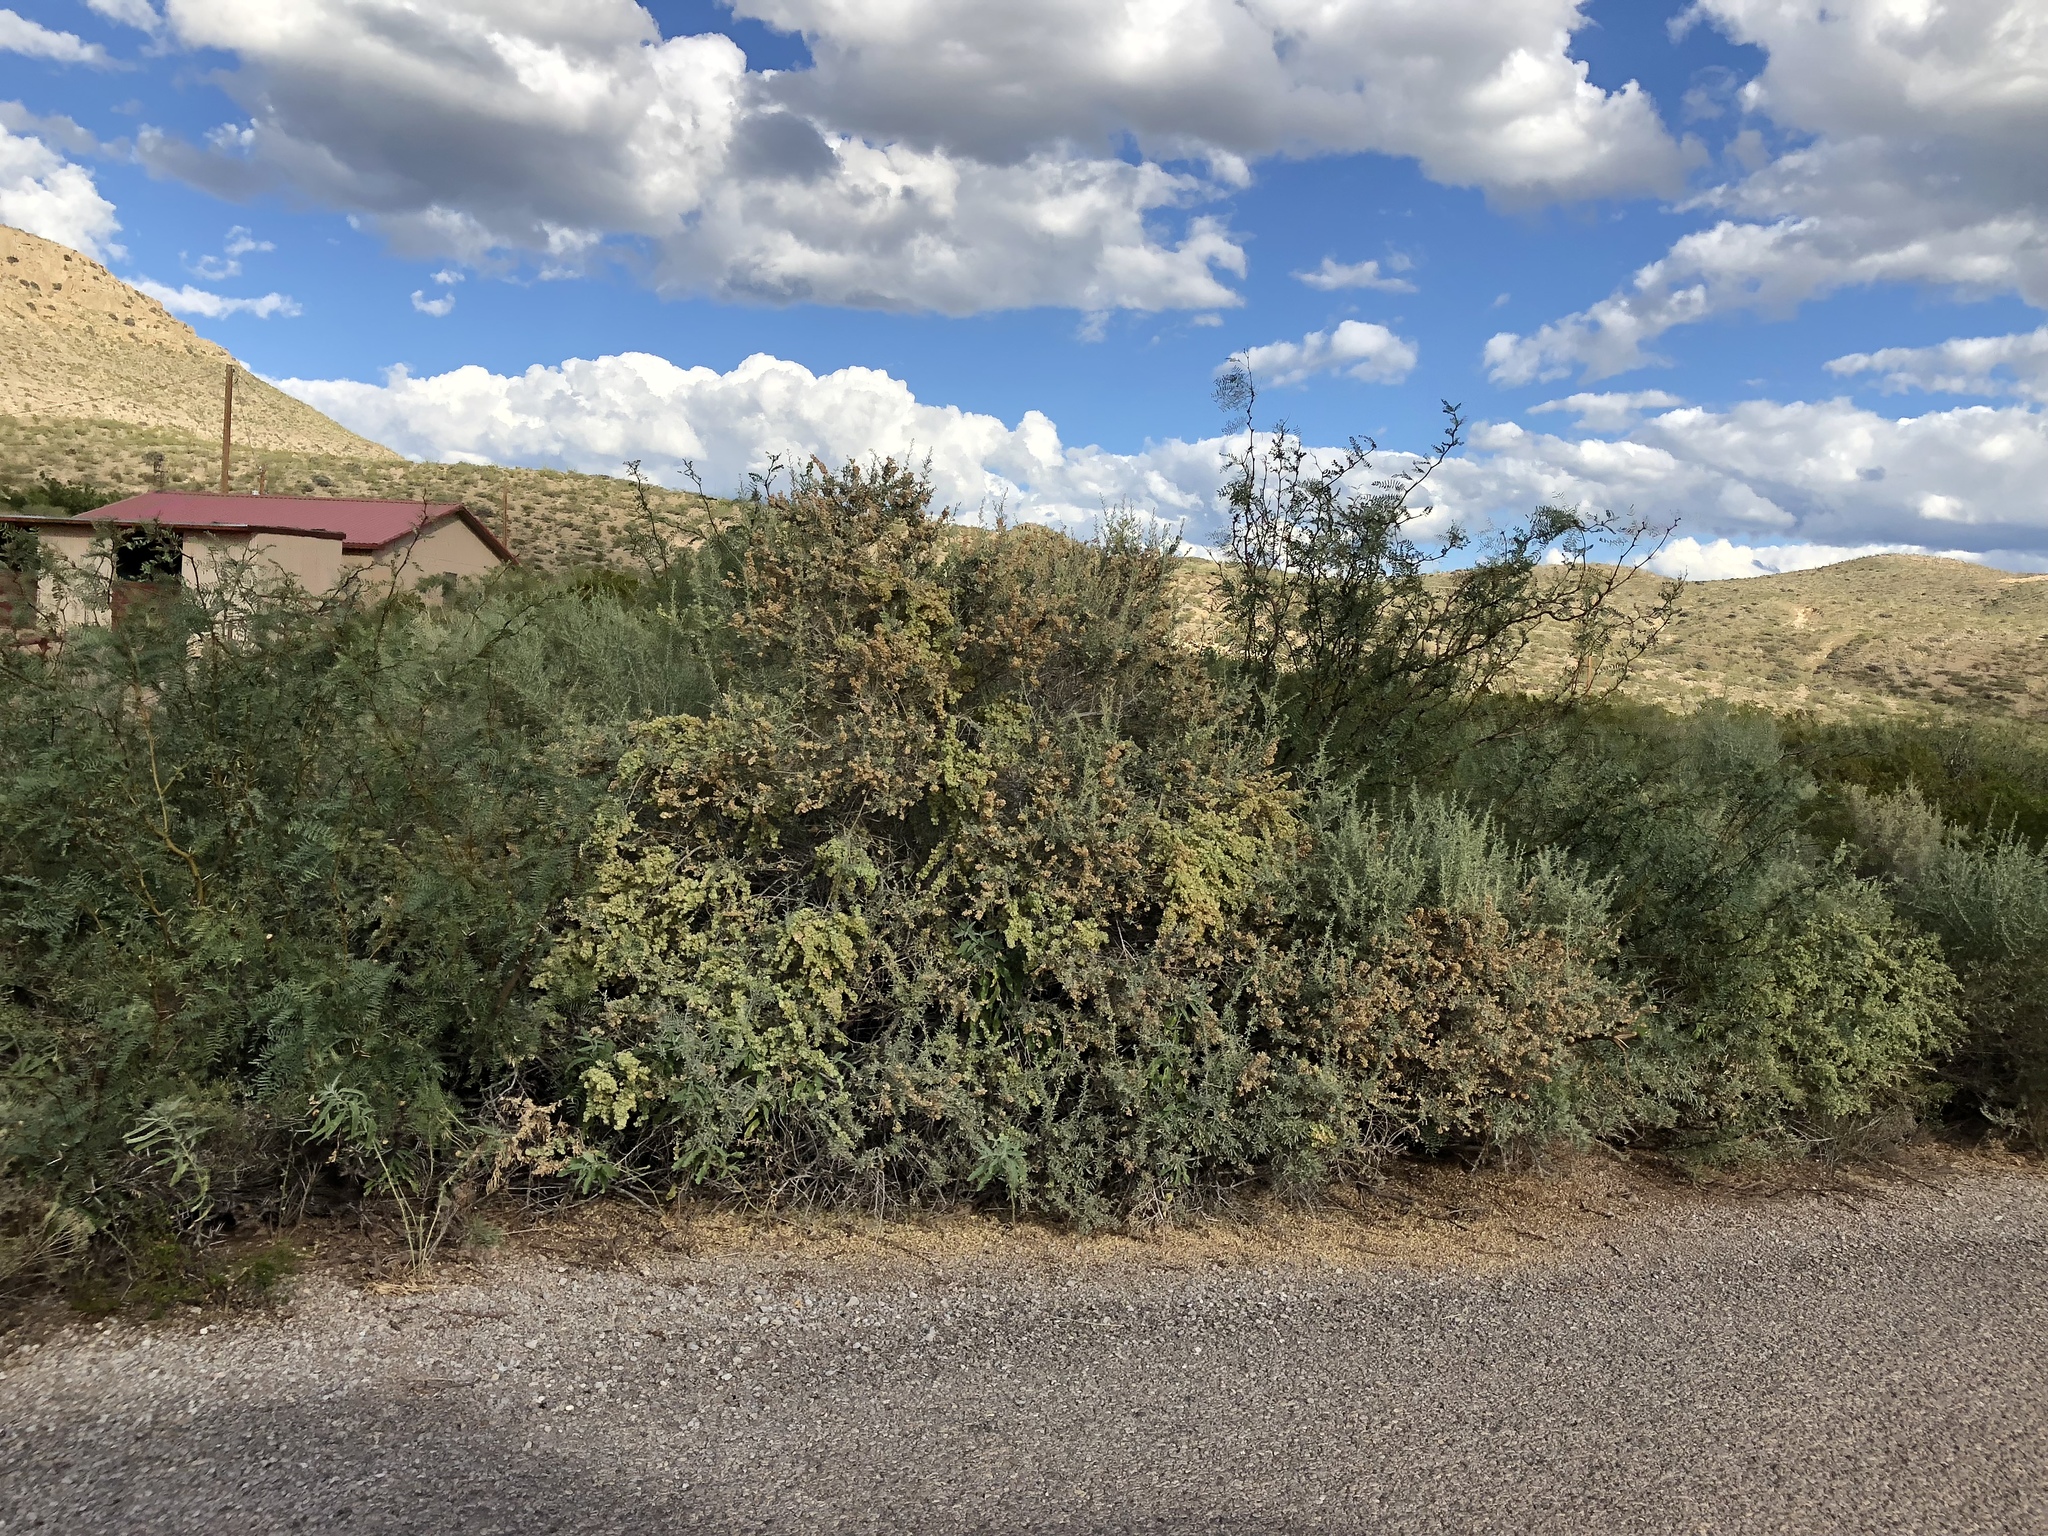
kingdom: Plantae
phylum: Tracheophyta
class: Magnoliopsida
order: Caryophyllales
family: Amaranthaceae
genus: Atriplex
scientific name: Atriplex canescens
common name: Four-wing saltbush
